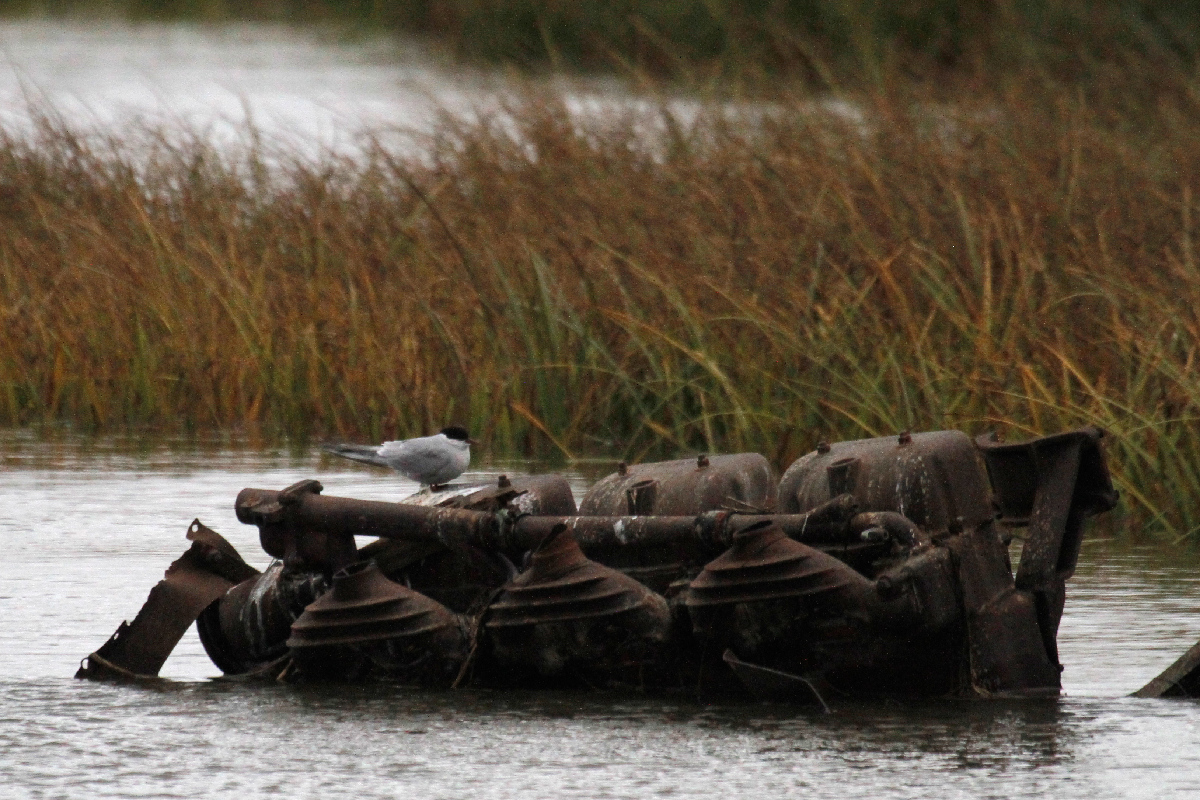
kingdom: Animalia
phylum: Chordata
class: Aves
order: Charadriiformes
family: Laridae
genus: Sterna
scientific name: Sterna paradisaea
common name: Arctic tern
